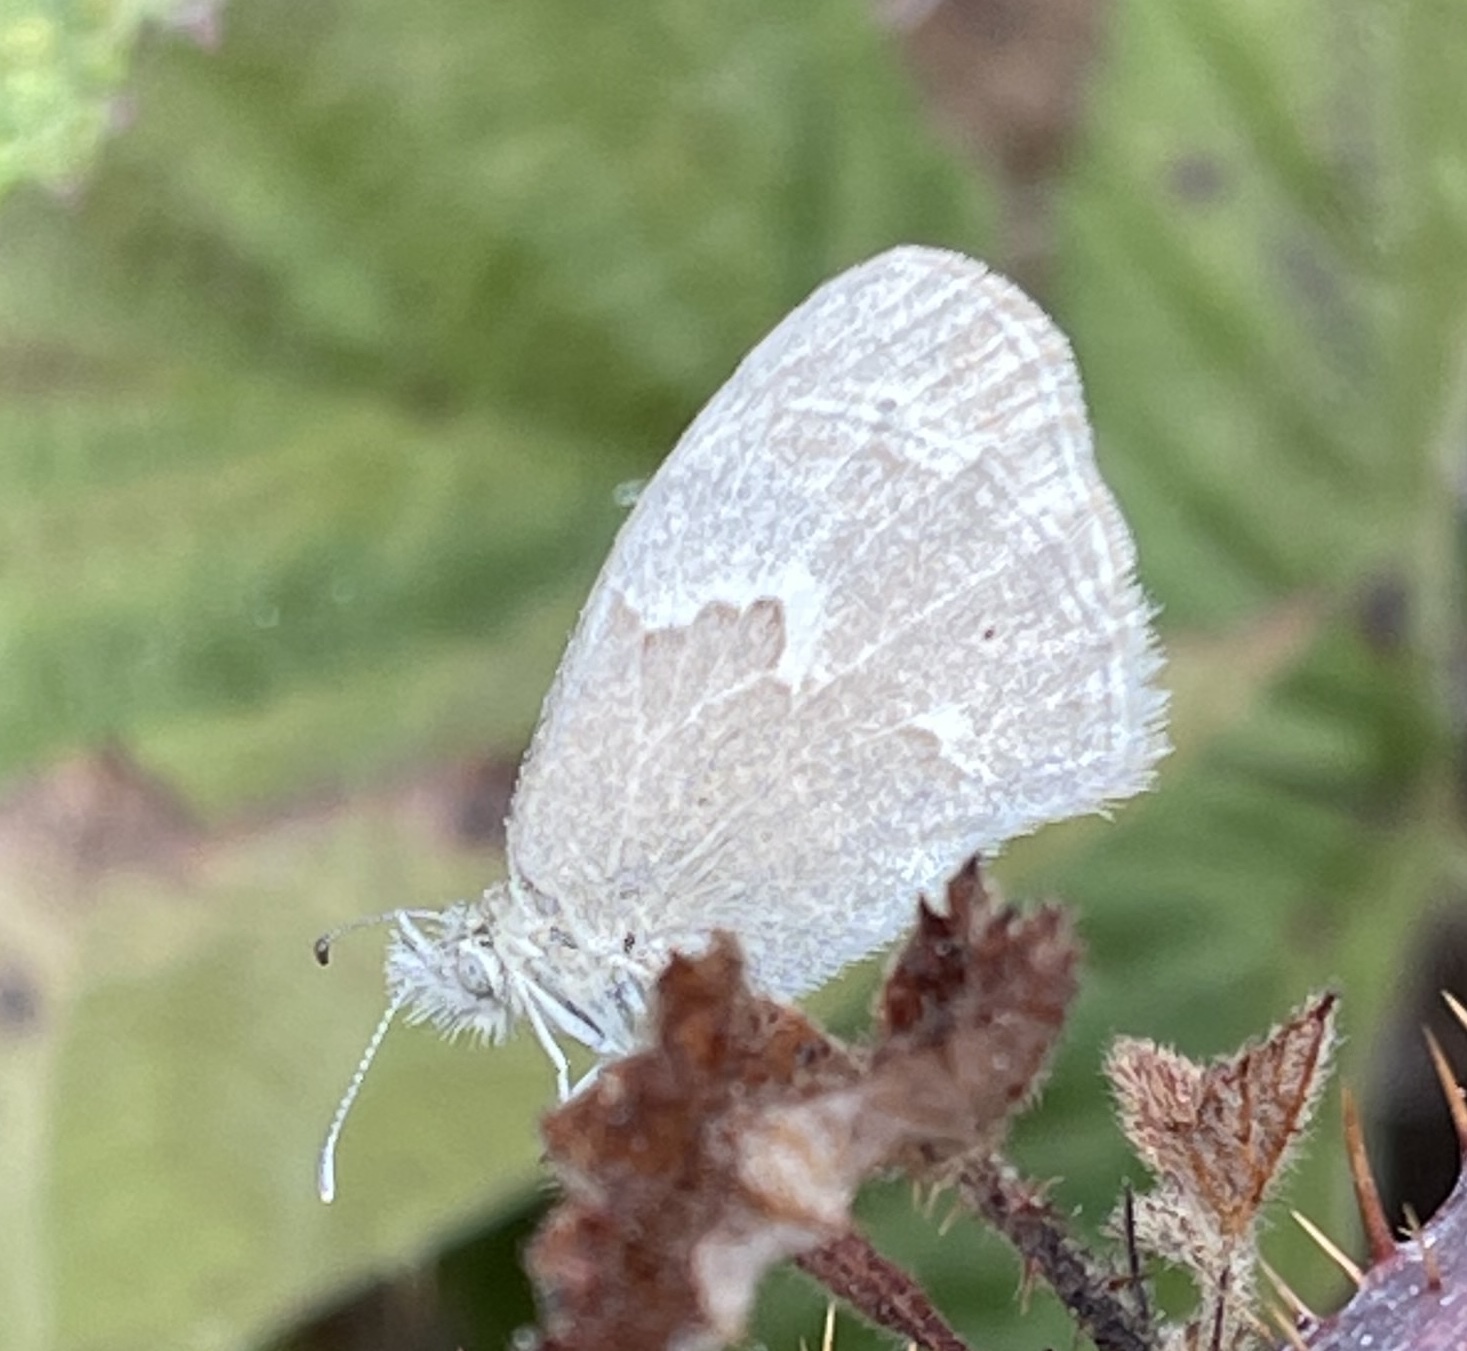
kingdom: Animalia
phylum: Arthropoda
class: Insecta
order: Lepidoptera
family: Nymphalidae
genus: Coenonympha
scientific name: Coenonympha california
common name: Common ringlet
